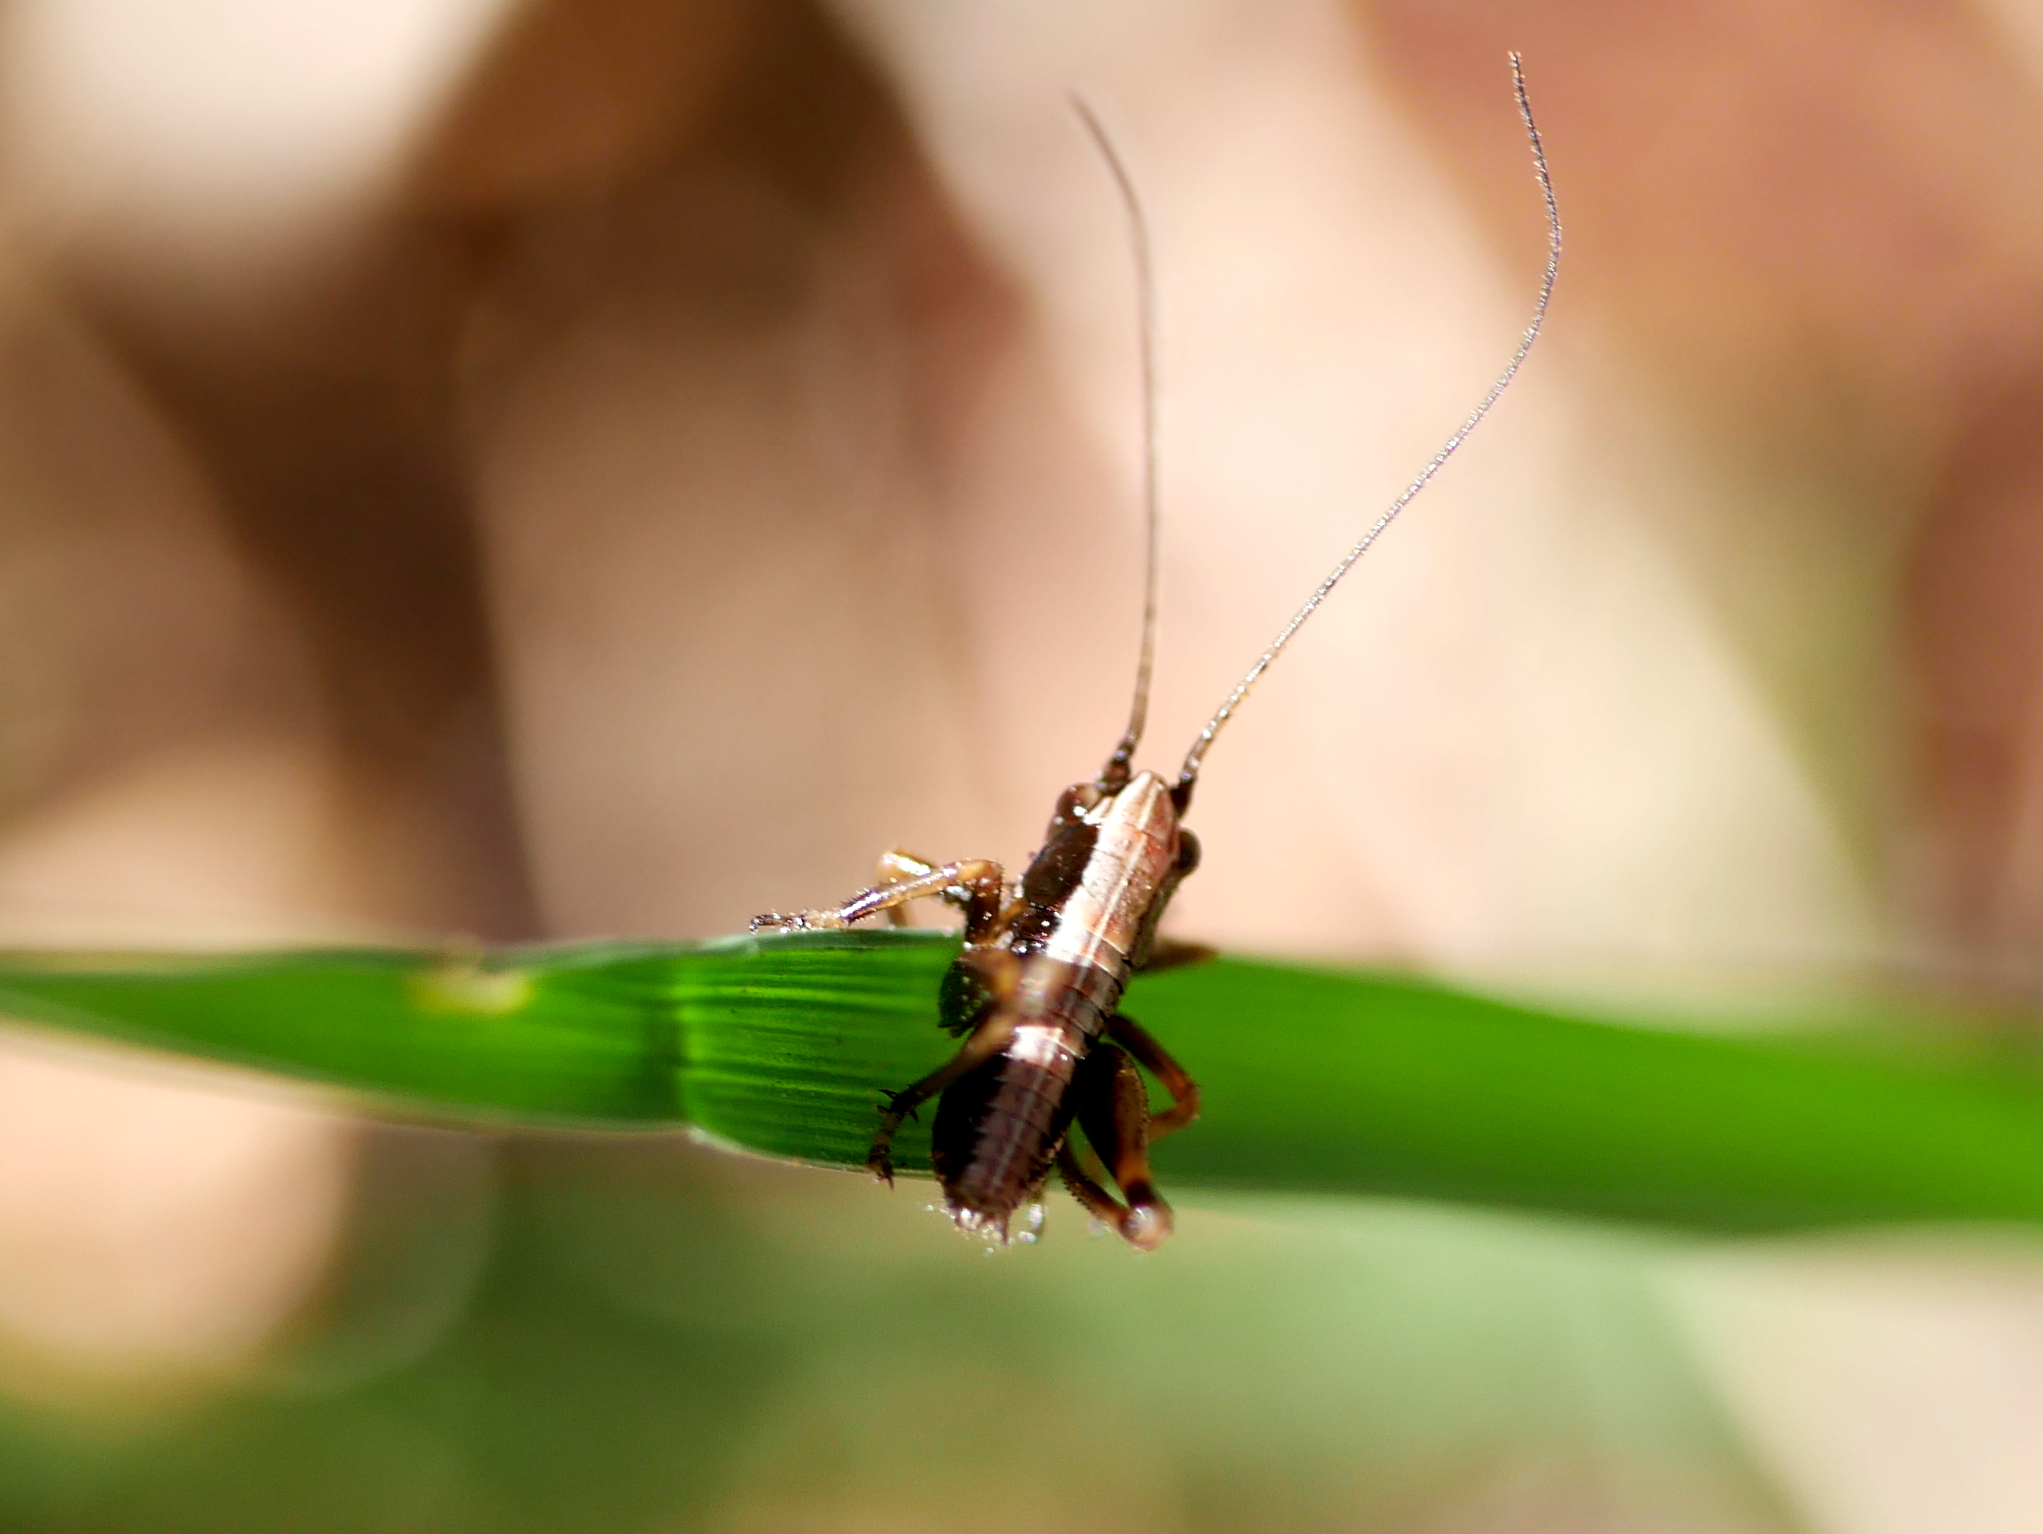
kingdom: Animalia
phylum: Arthropoda
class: Insecta
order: Orthoptera
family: Tettigoniidae
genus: Pholidoptera
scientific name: Pholidoptera griseoaptera
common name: Dark bush-cricket
